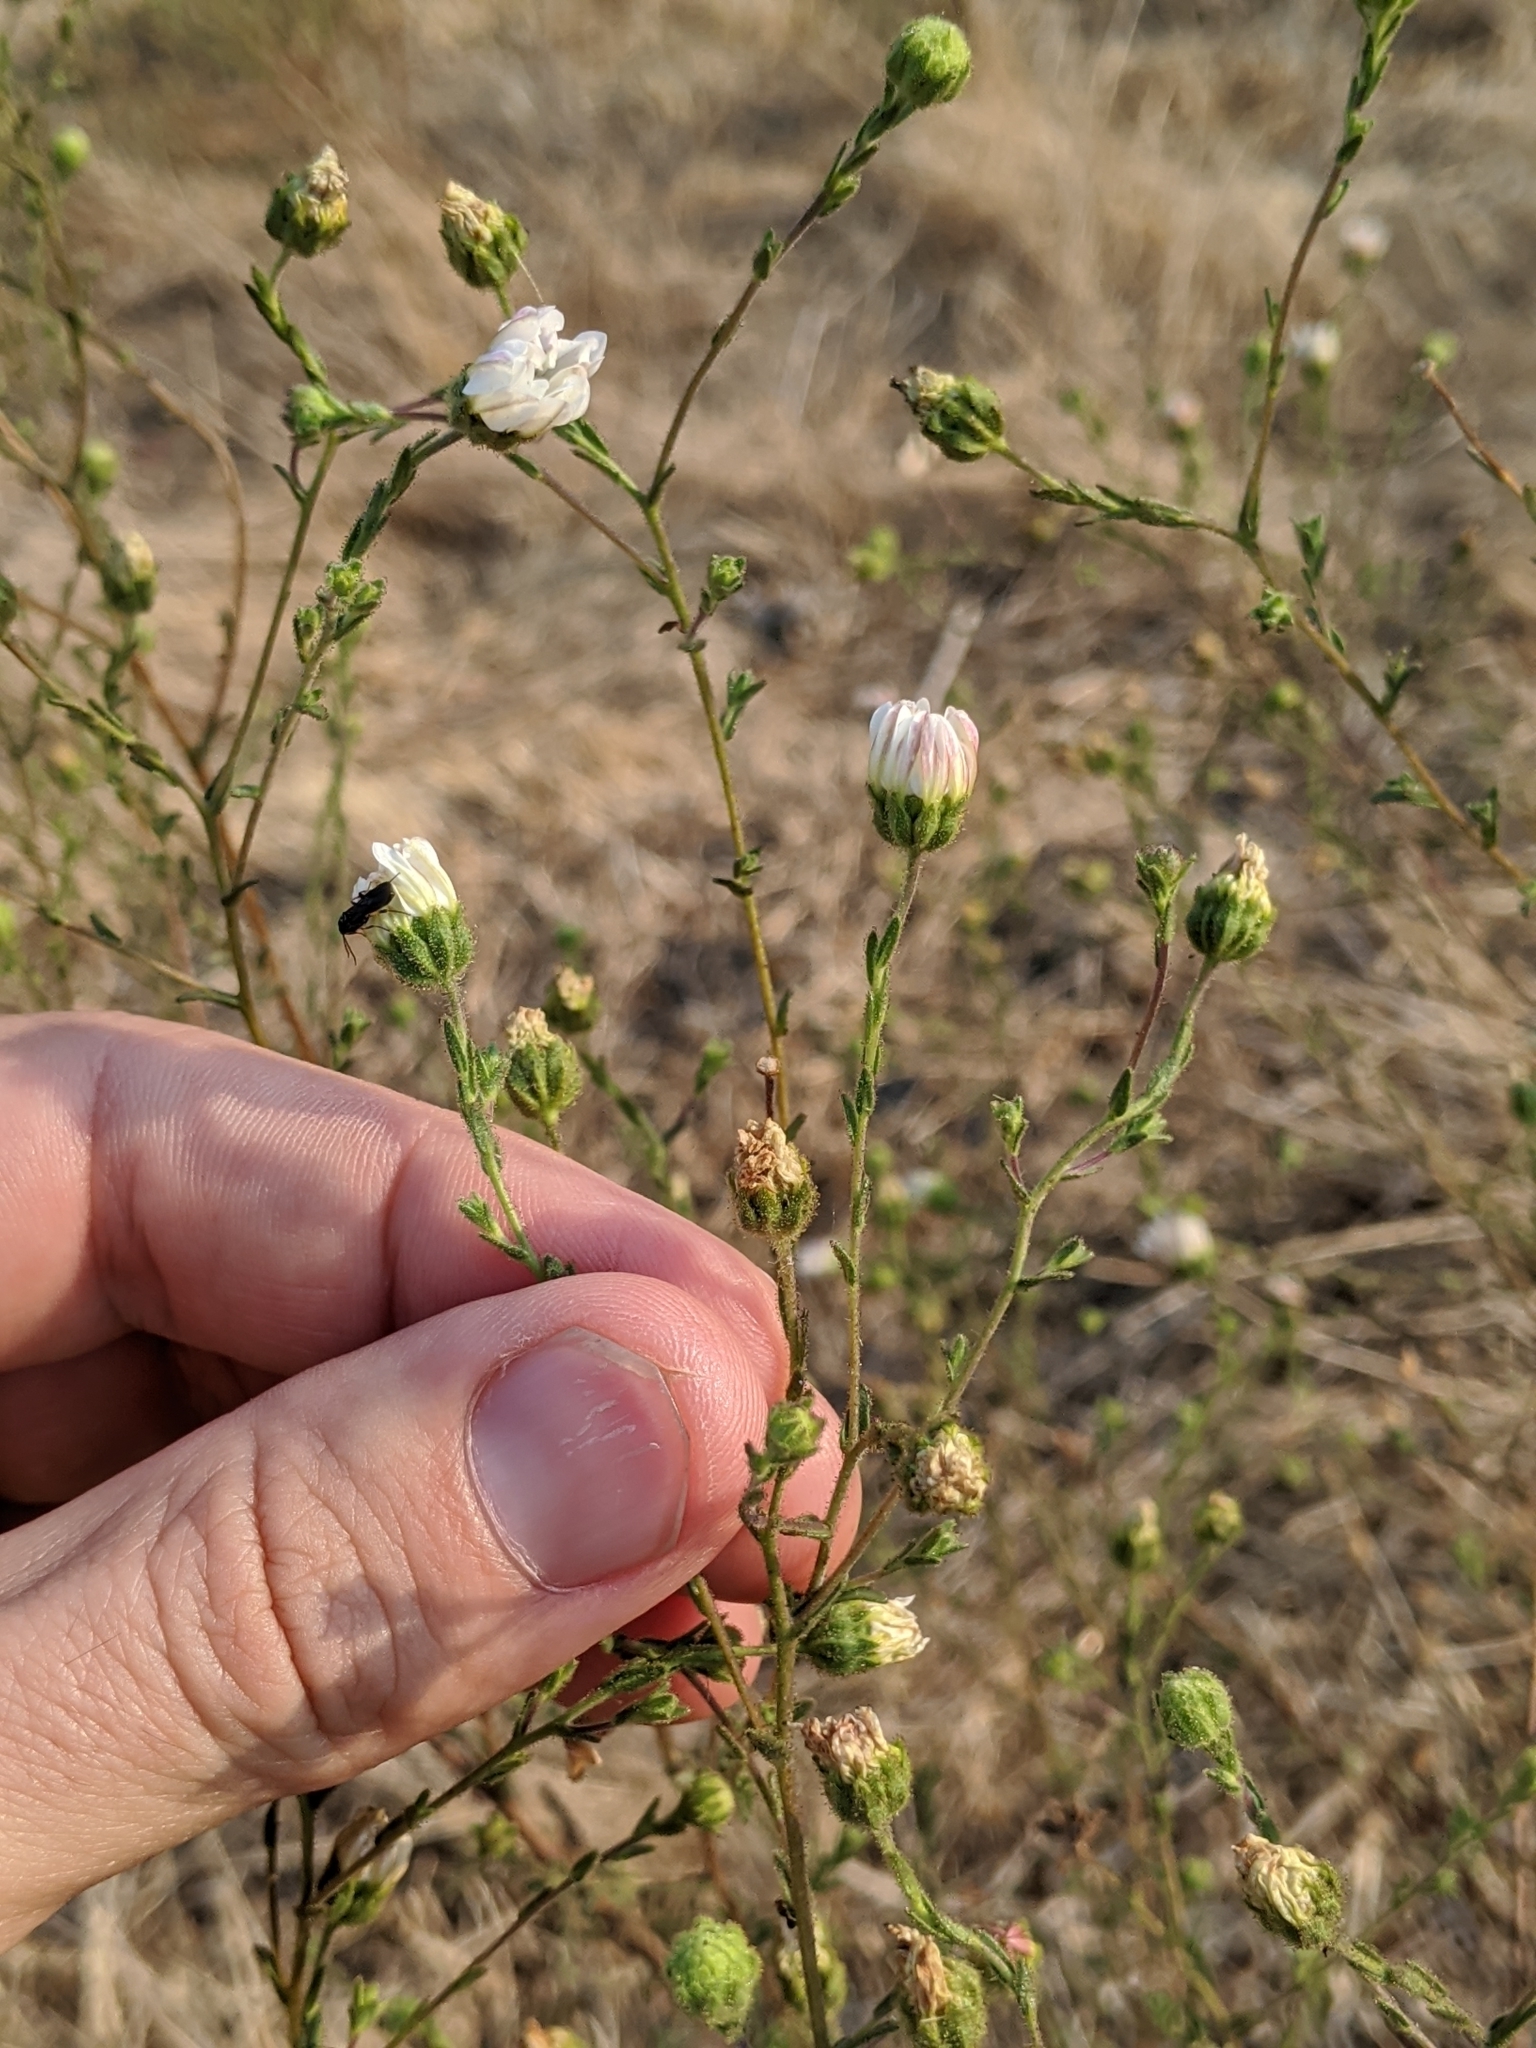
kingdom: Plantae
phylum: Tracheophyta
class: Magnoliopsida
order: Asterales
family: Asteraceae
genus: Hemizonia
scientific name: Hemizonia congesta
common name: Hayfield tarweed
